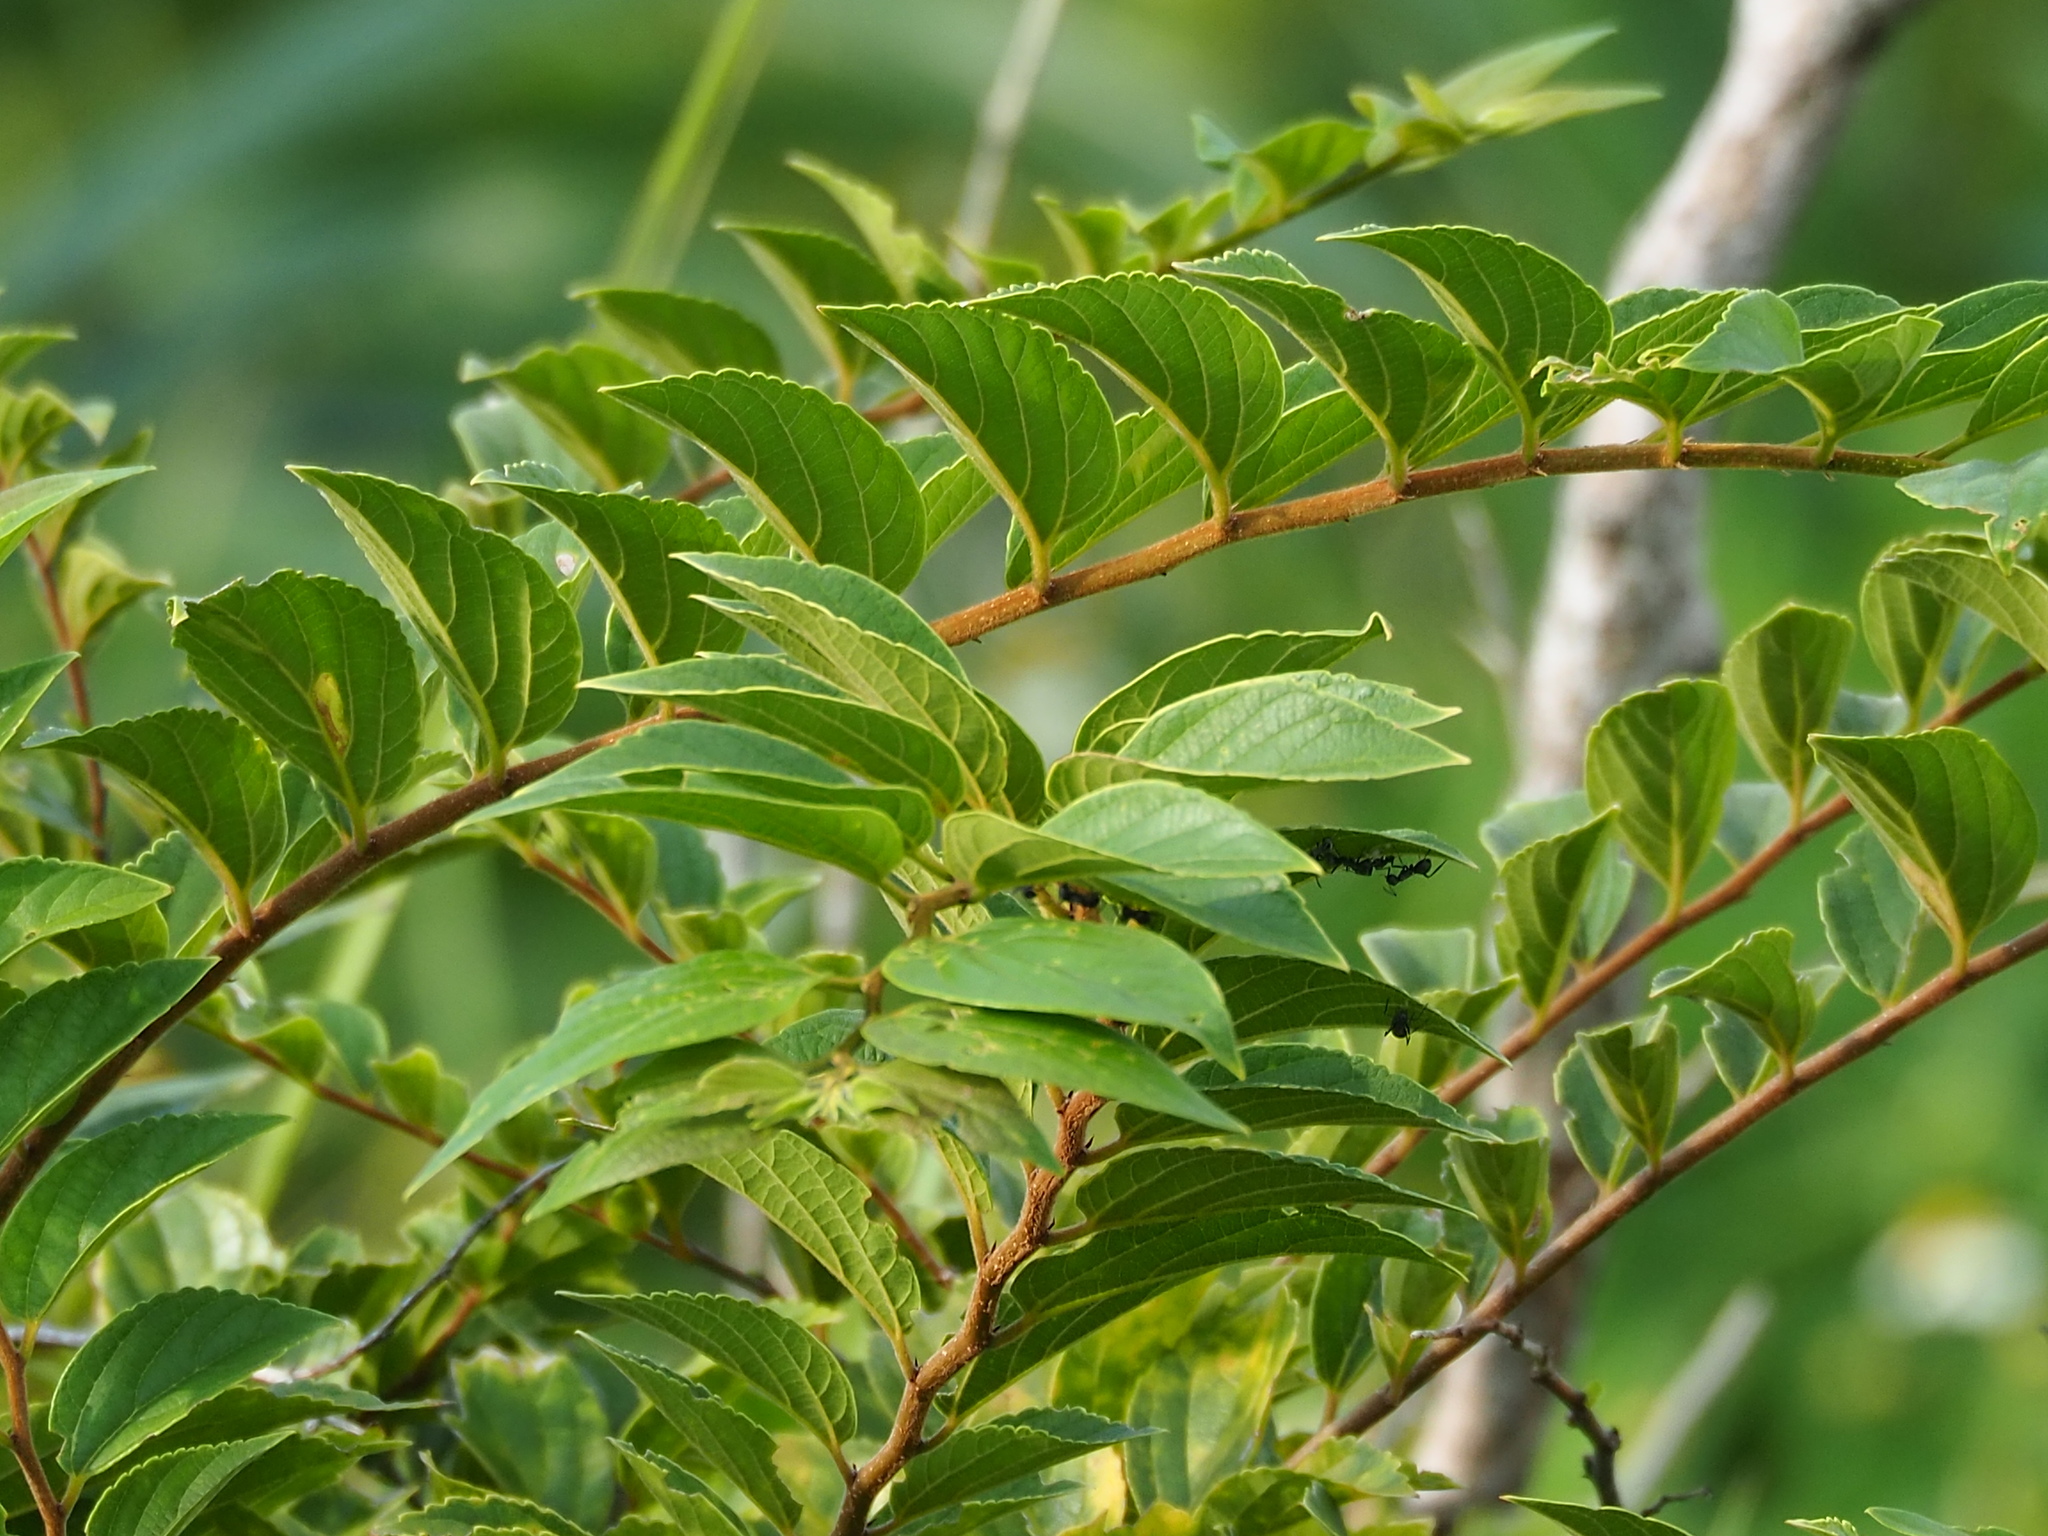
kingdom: Plantae
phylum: Tracheophyta
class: Magnoliopsida
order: Rosales
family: Cannabaceae
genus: Celtis
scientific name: Celtis sinensis
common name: Chinese hackberry
